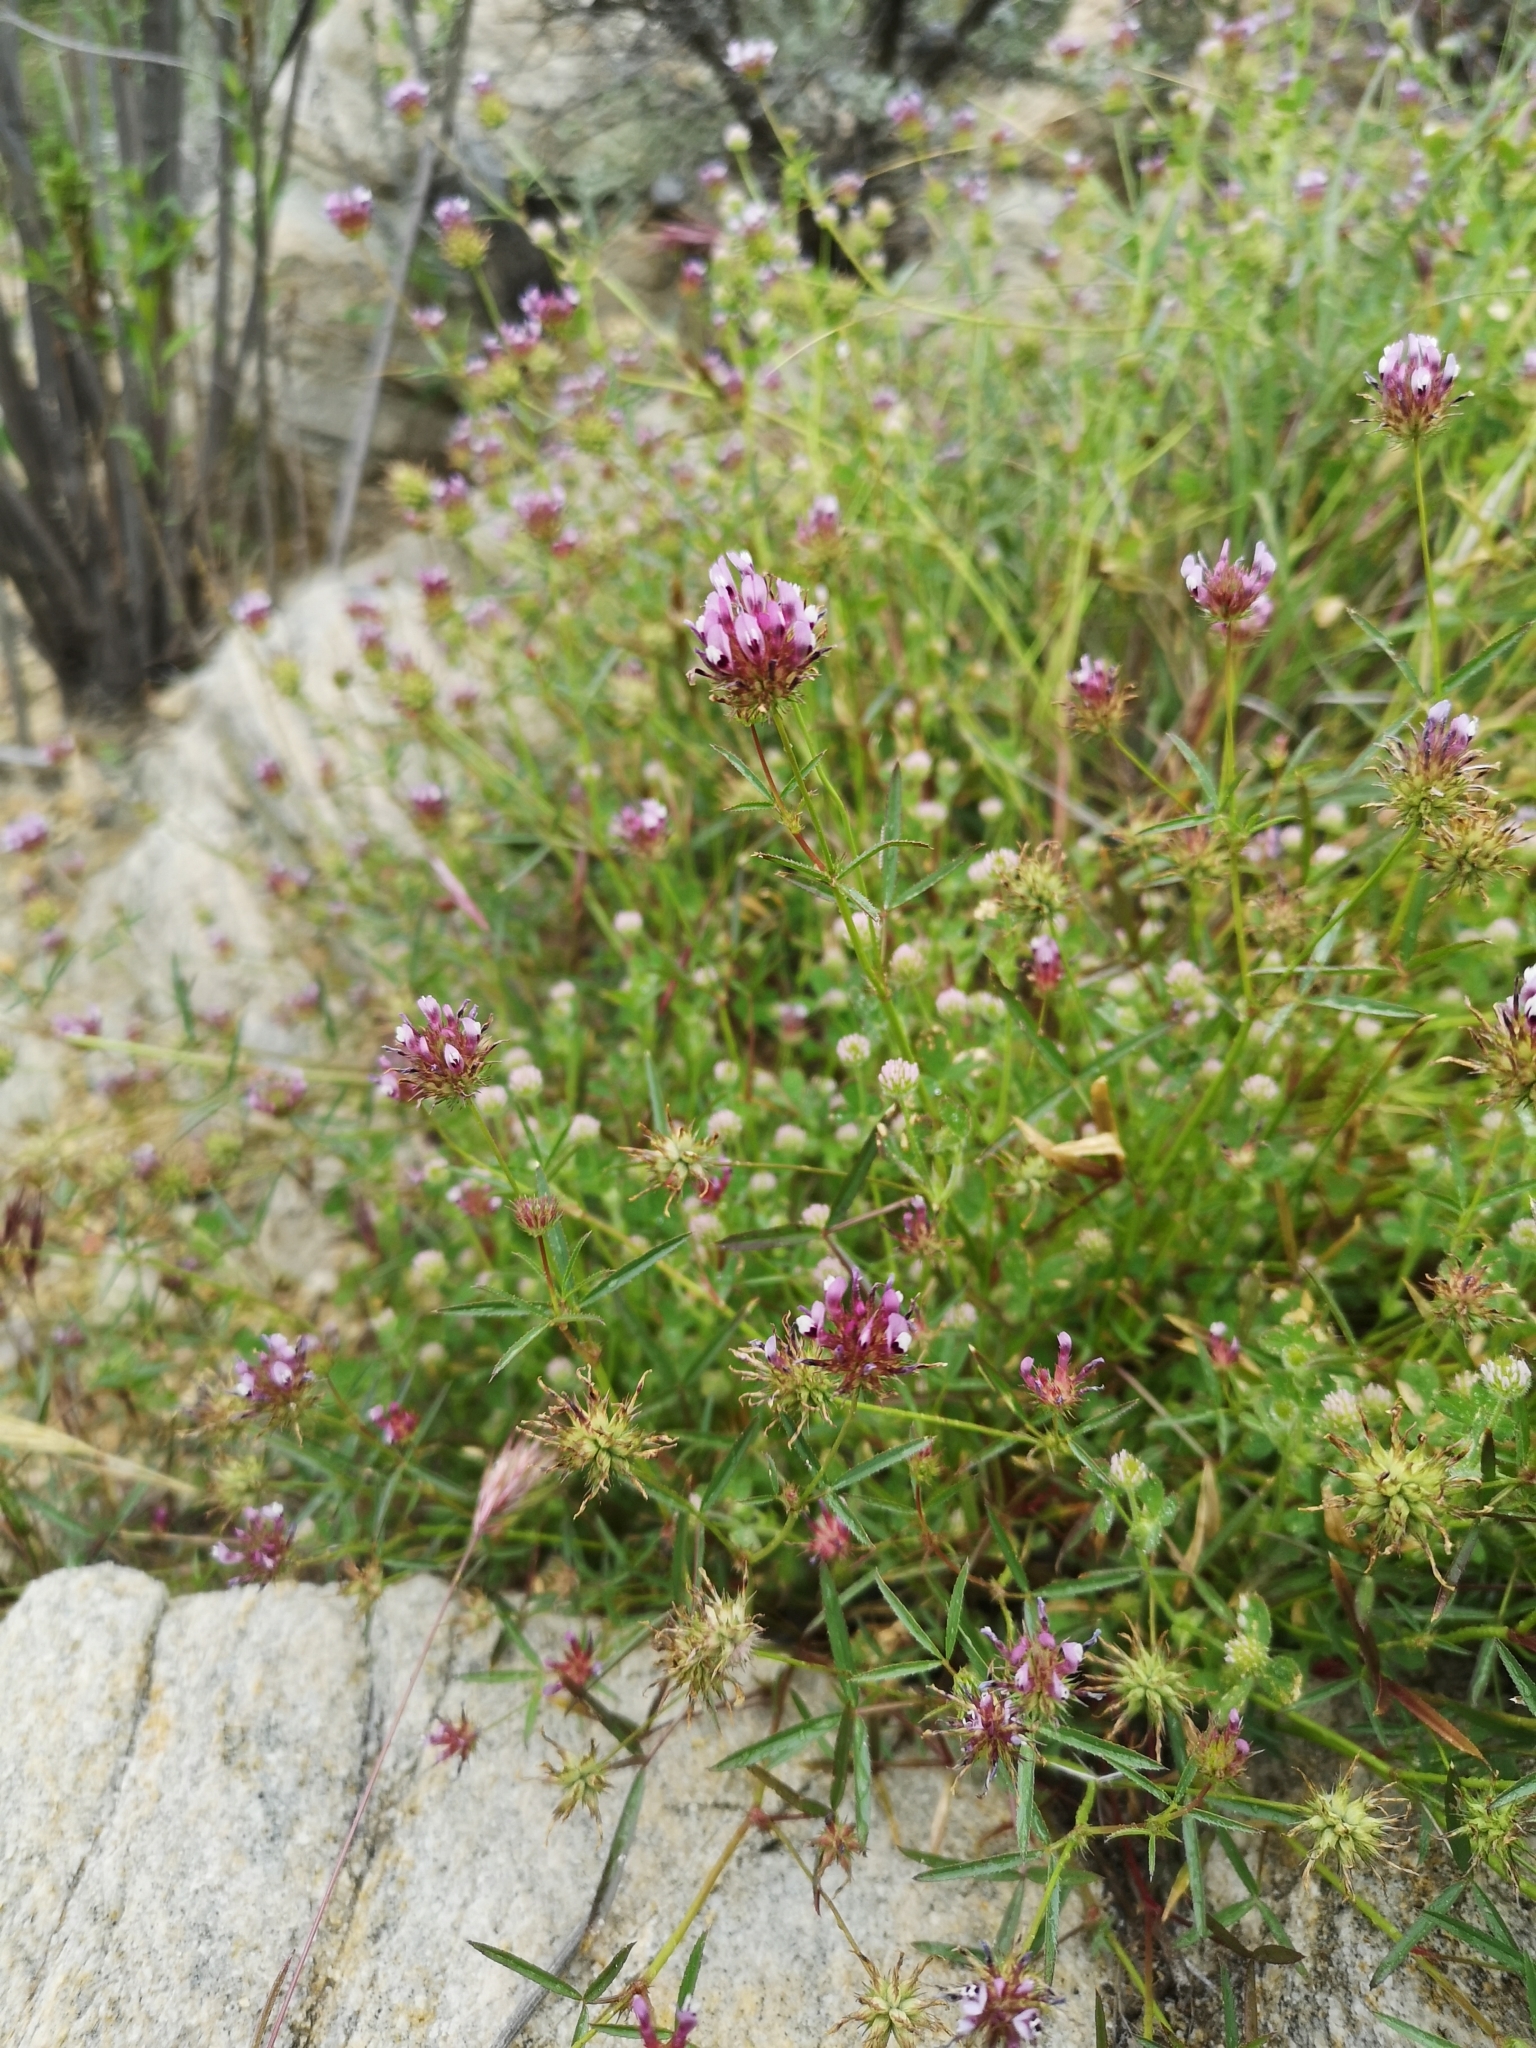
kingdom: Plantae
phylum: Tracheophyta
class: Magnoliopsida
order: Fabales
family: Fabaceae
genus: Trifolium
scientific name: Trifolium willdenovii
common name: Tomcat clover
